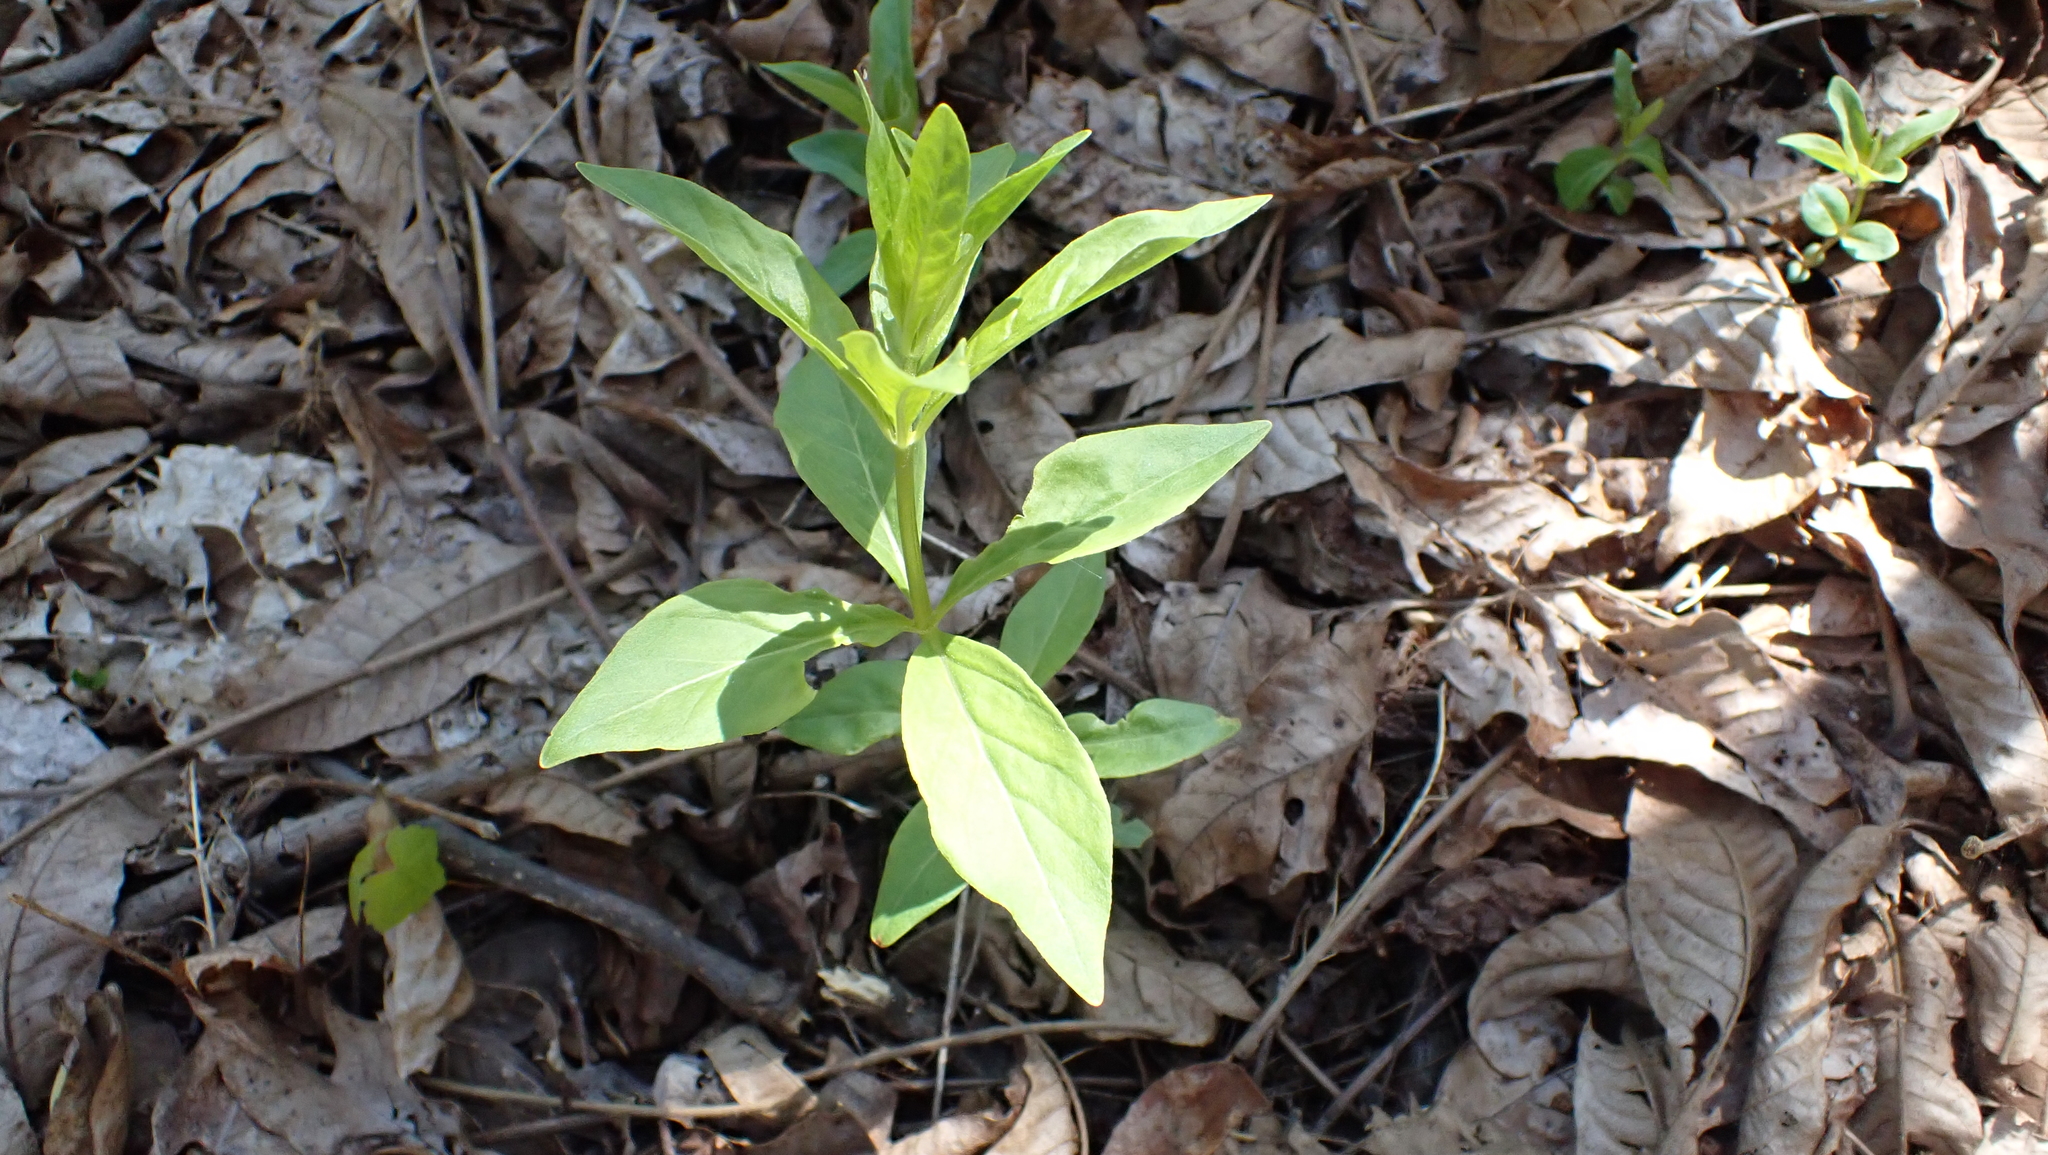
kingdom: Plantae
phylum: Tracheophyta
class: Magnoliopsida
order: Ericales
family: Primulaceae
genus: Lysimachia
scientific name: Lysimachia quadrifolia
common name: Whorled loosestrife
